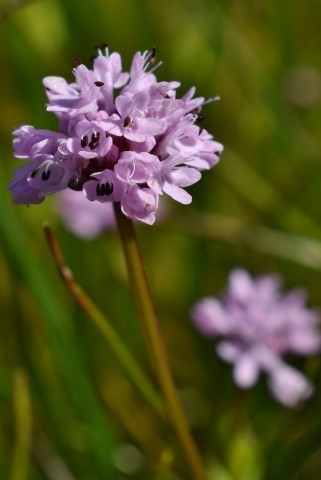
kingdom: Plantae
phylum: Tracheophyta
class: Magnoliopsida
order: Dipsacales
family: Caprifoliaceae
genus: Plectritis
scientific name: Plectritis congesta
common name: Pink plectritis
